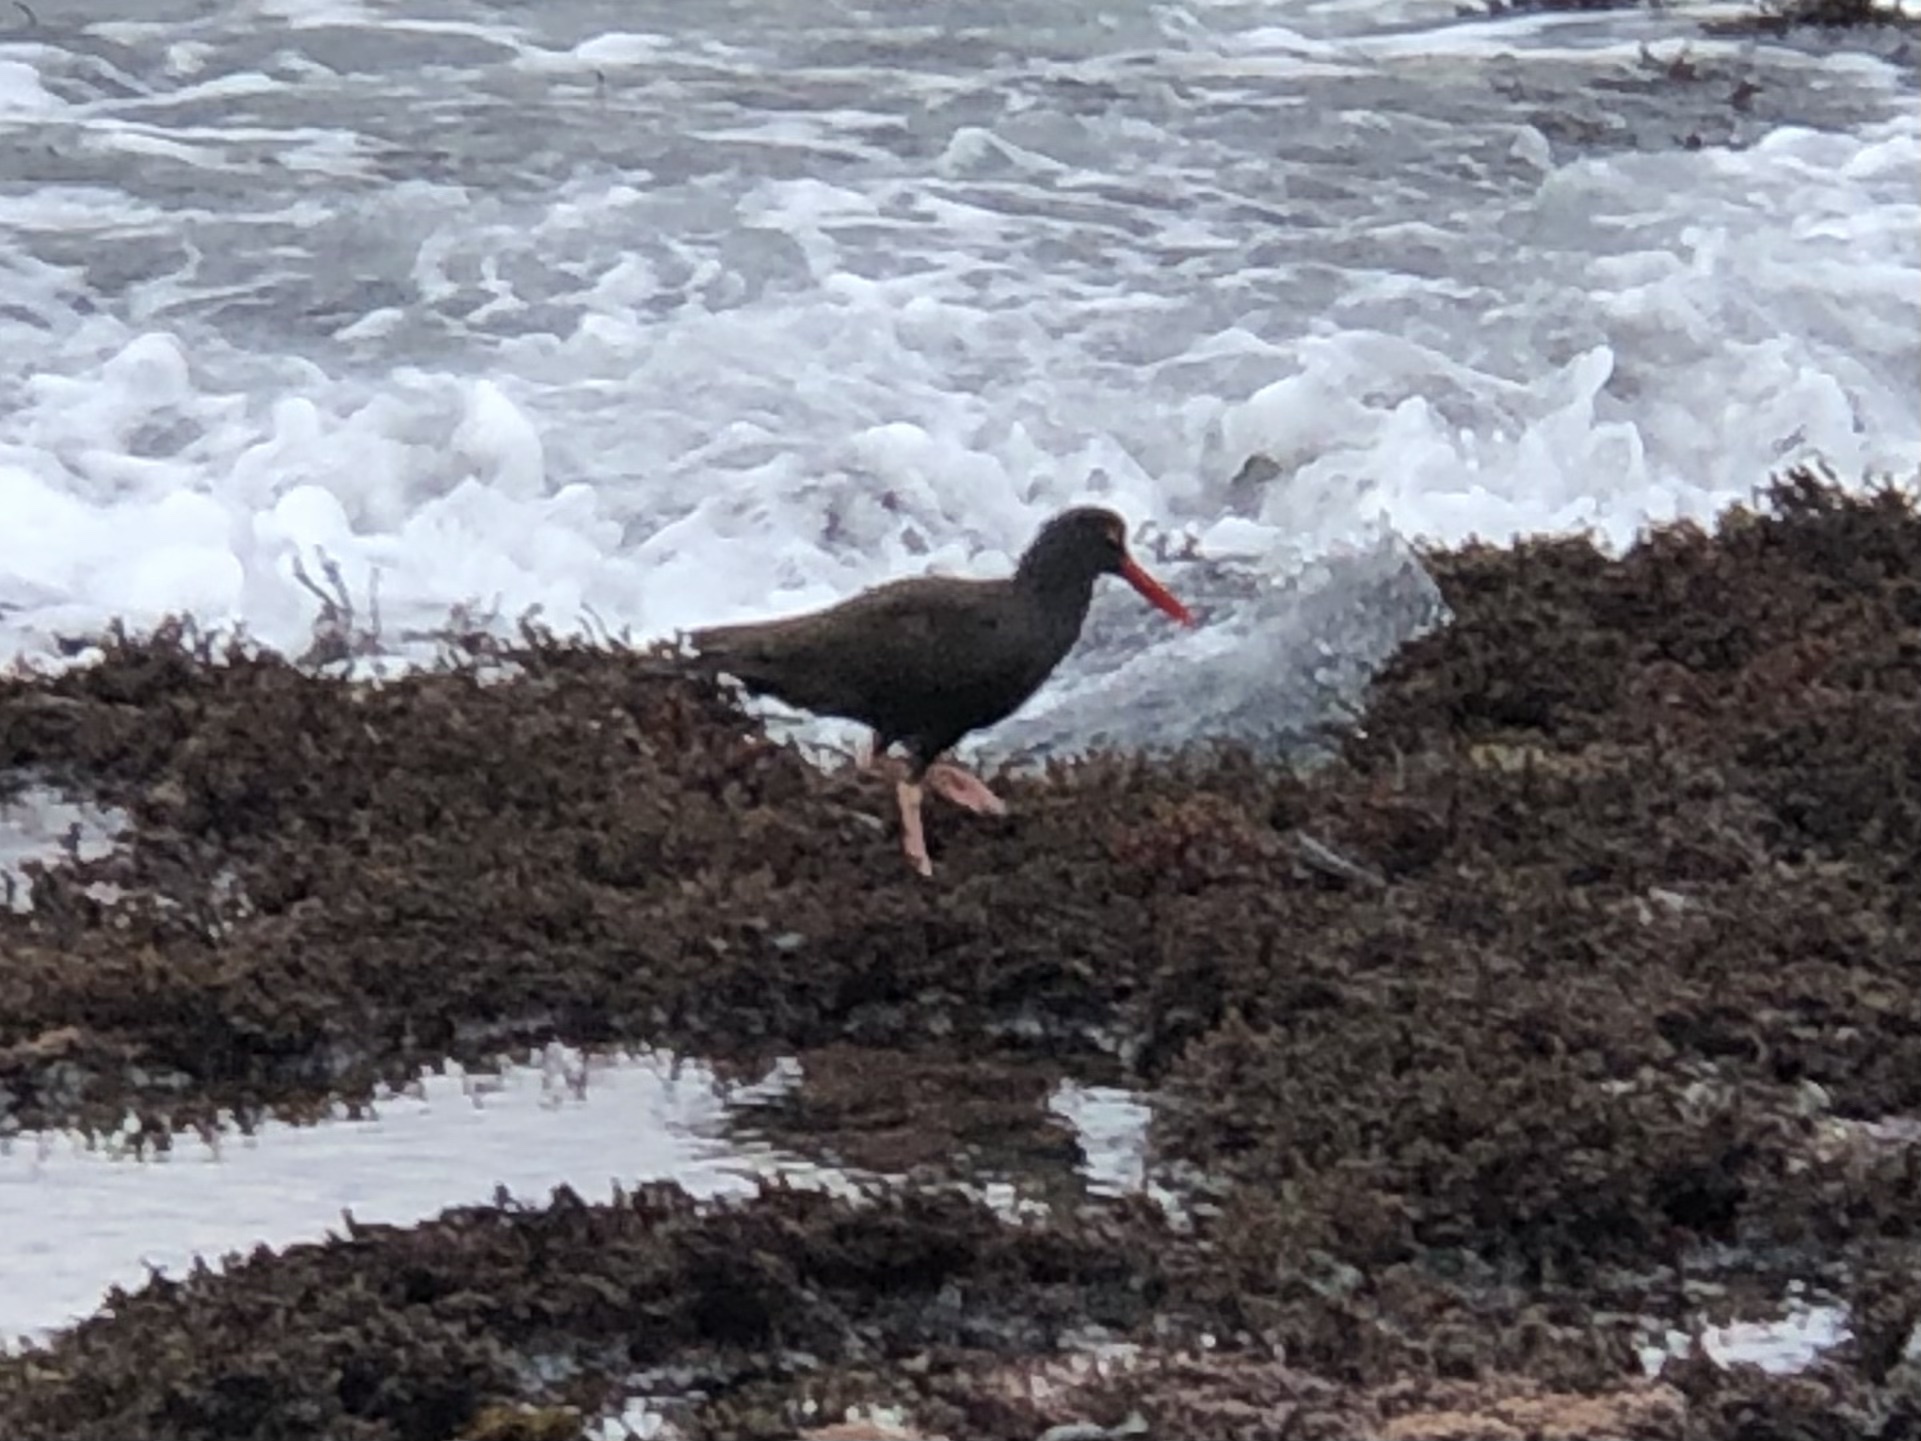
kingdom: Animalia
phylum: Chordata
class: Aves
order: Charadriiformes
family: Haematopodidae
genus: Haematopus
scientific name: Haematopus bachmani
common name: Black oystercatcher
